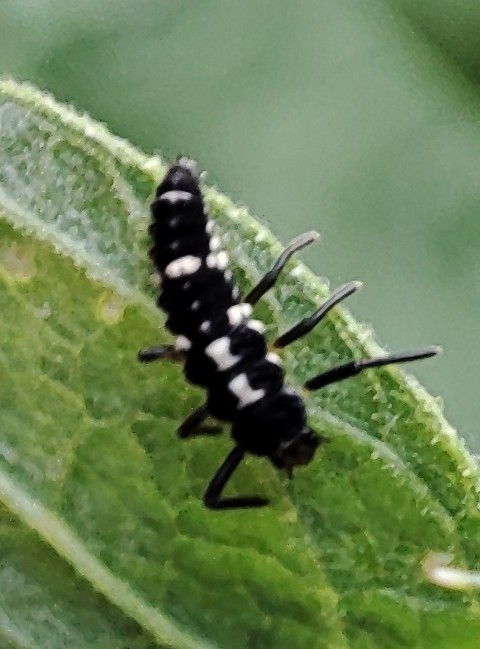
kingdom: Animalia
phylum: Arthropoda
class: Insecta
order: Coleoptera
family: Coccinellidae
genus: Propylaea
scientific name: Propylaea quatuordecimpunctata
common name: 14-spotted ladybird beetle
